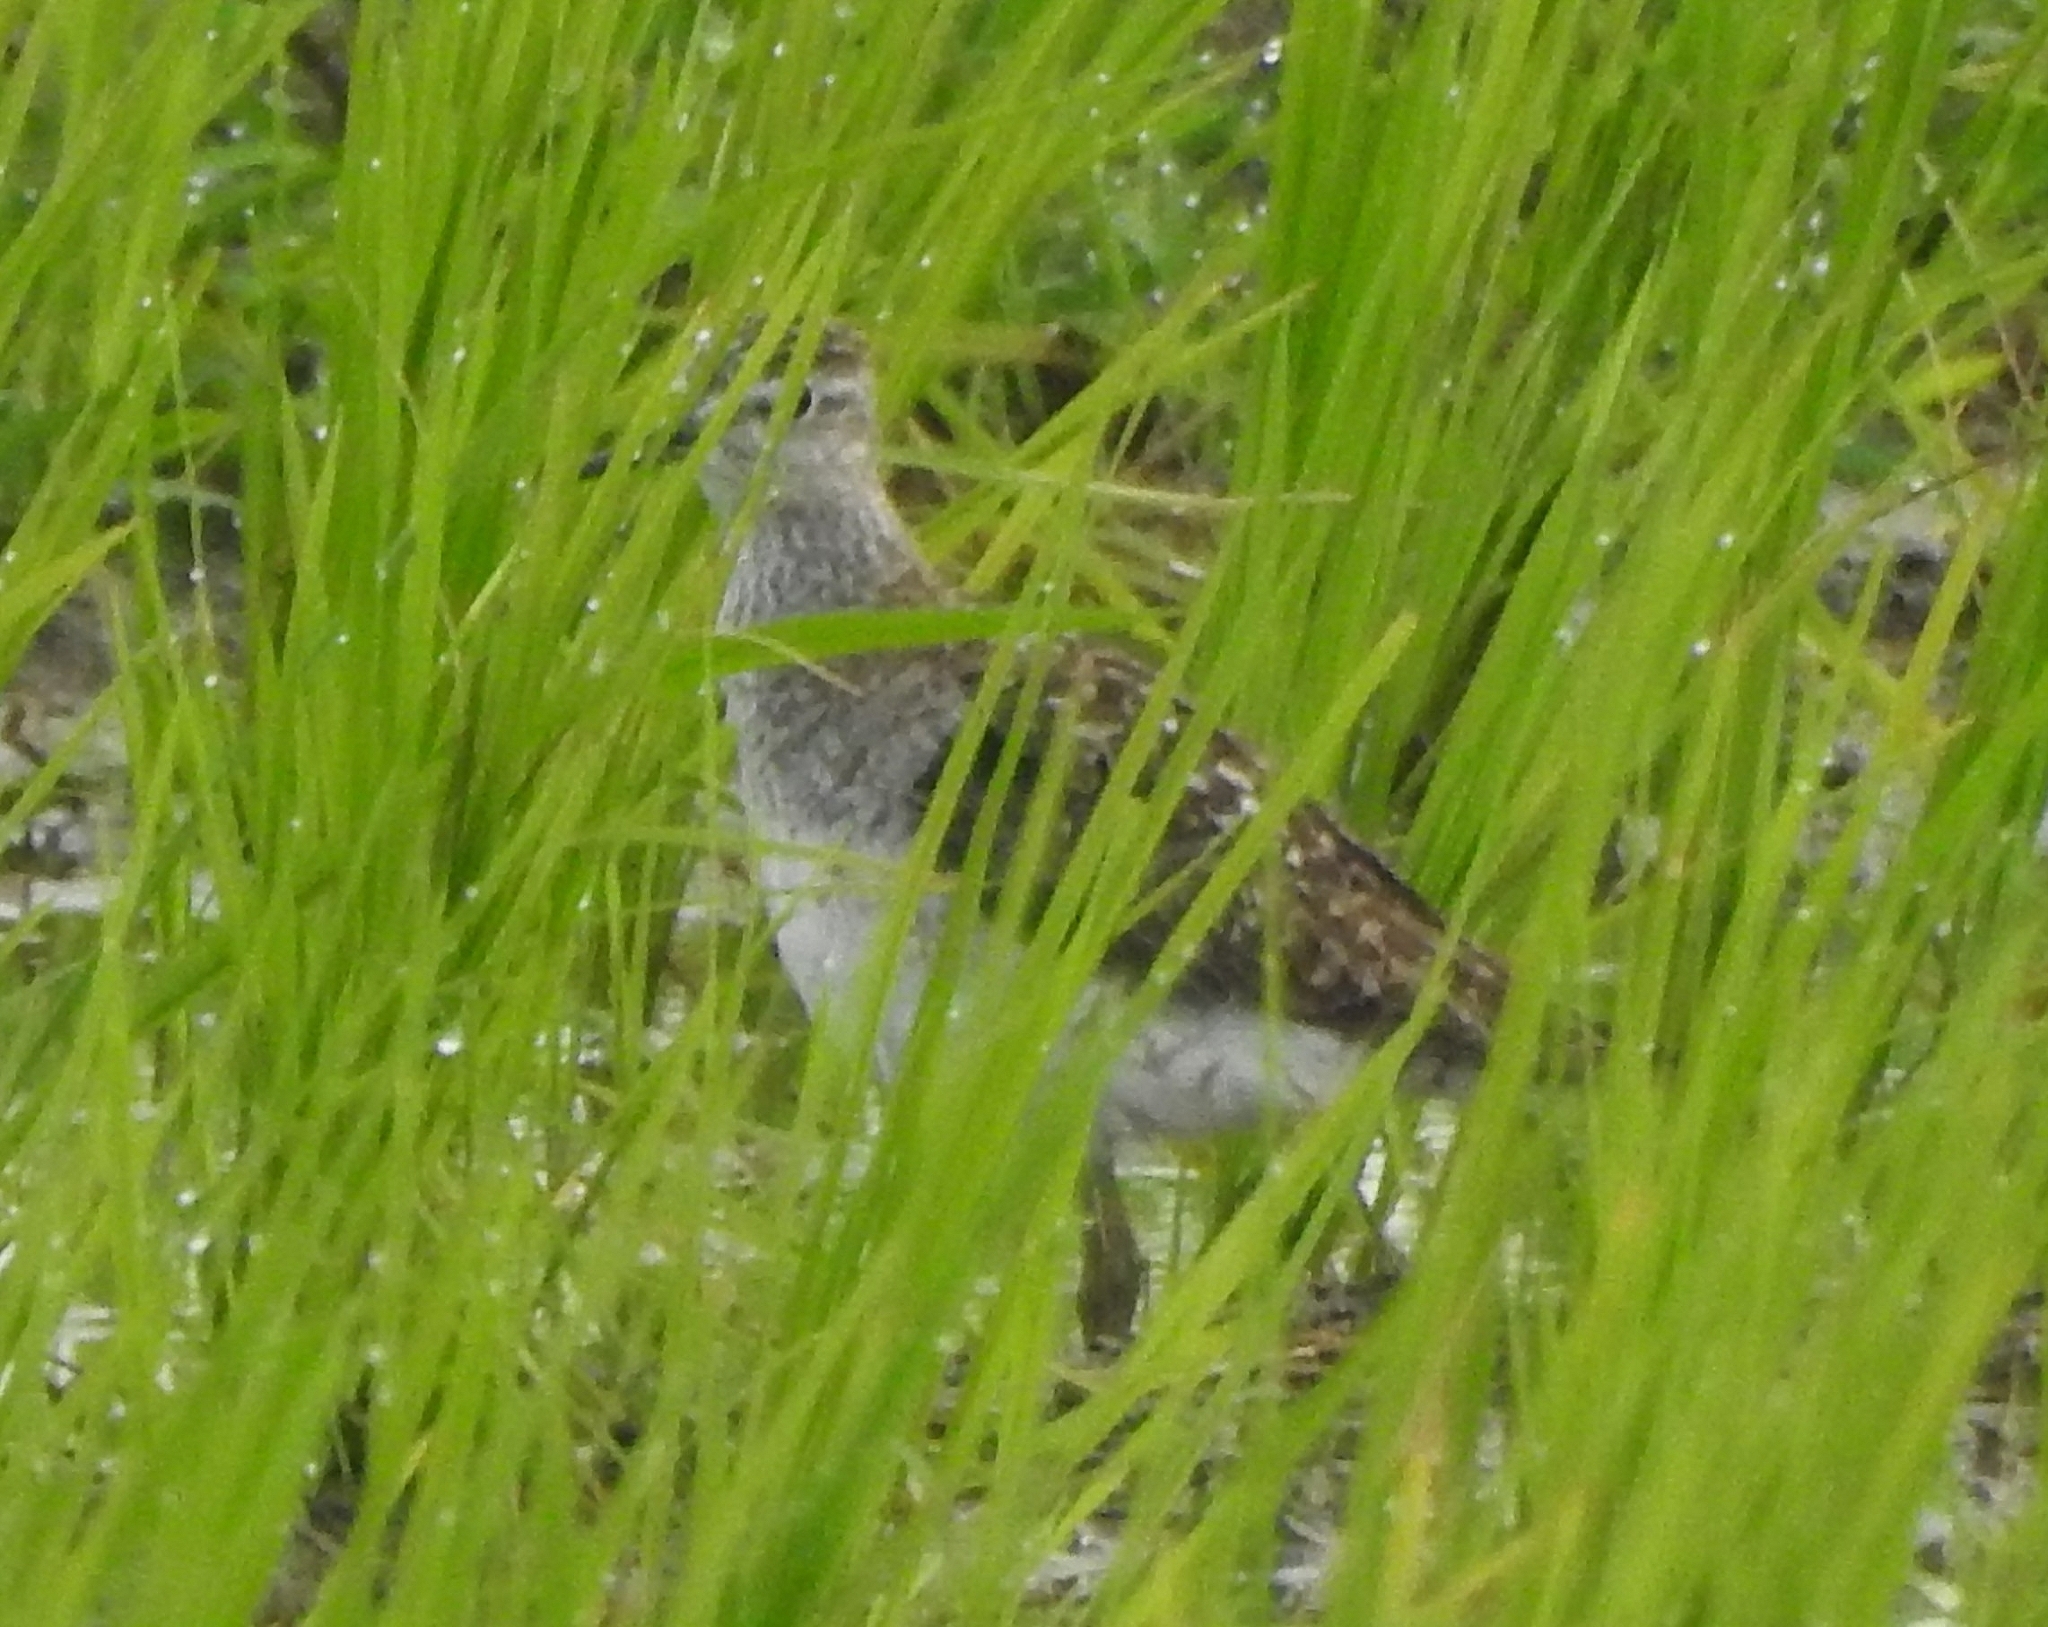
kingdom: Animalia
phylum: Chordata
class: Aves
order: Charadriiformes
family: Scolopacidae
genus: Tringa
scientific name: Tringa glareola
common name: Wood sandpiper
